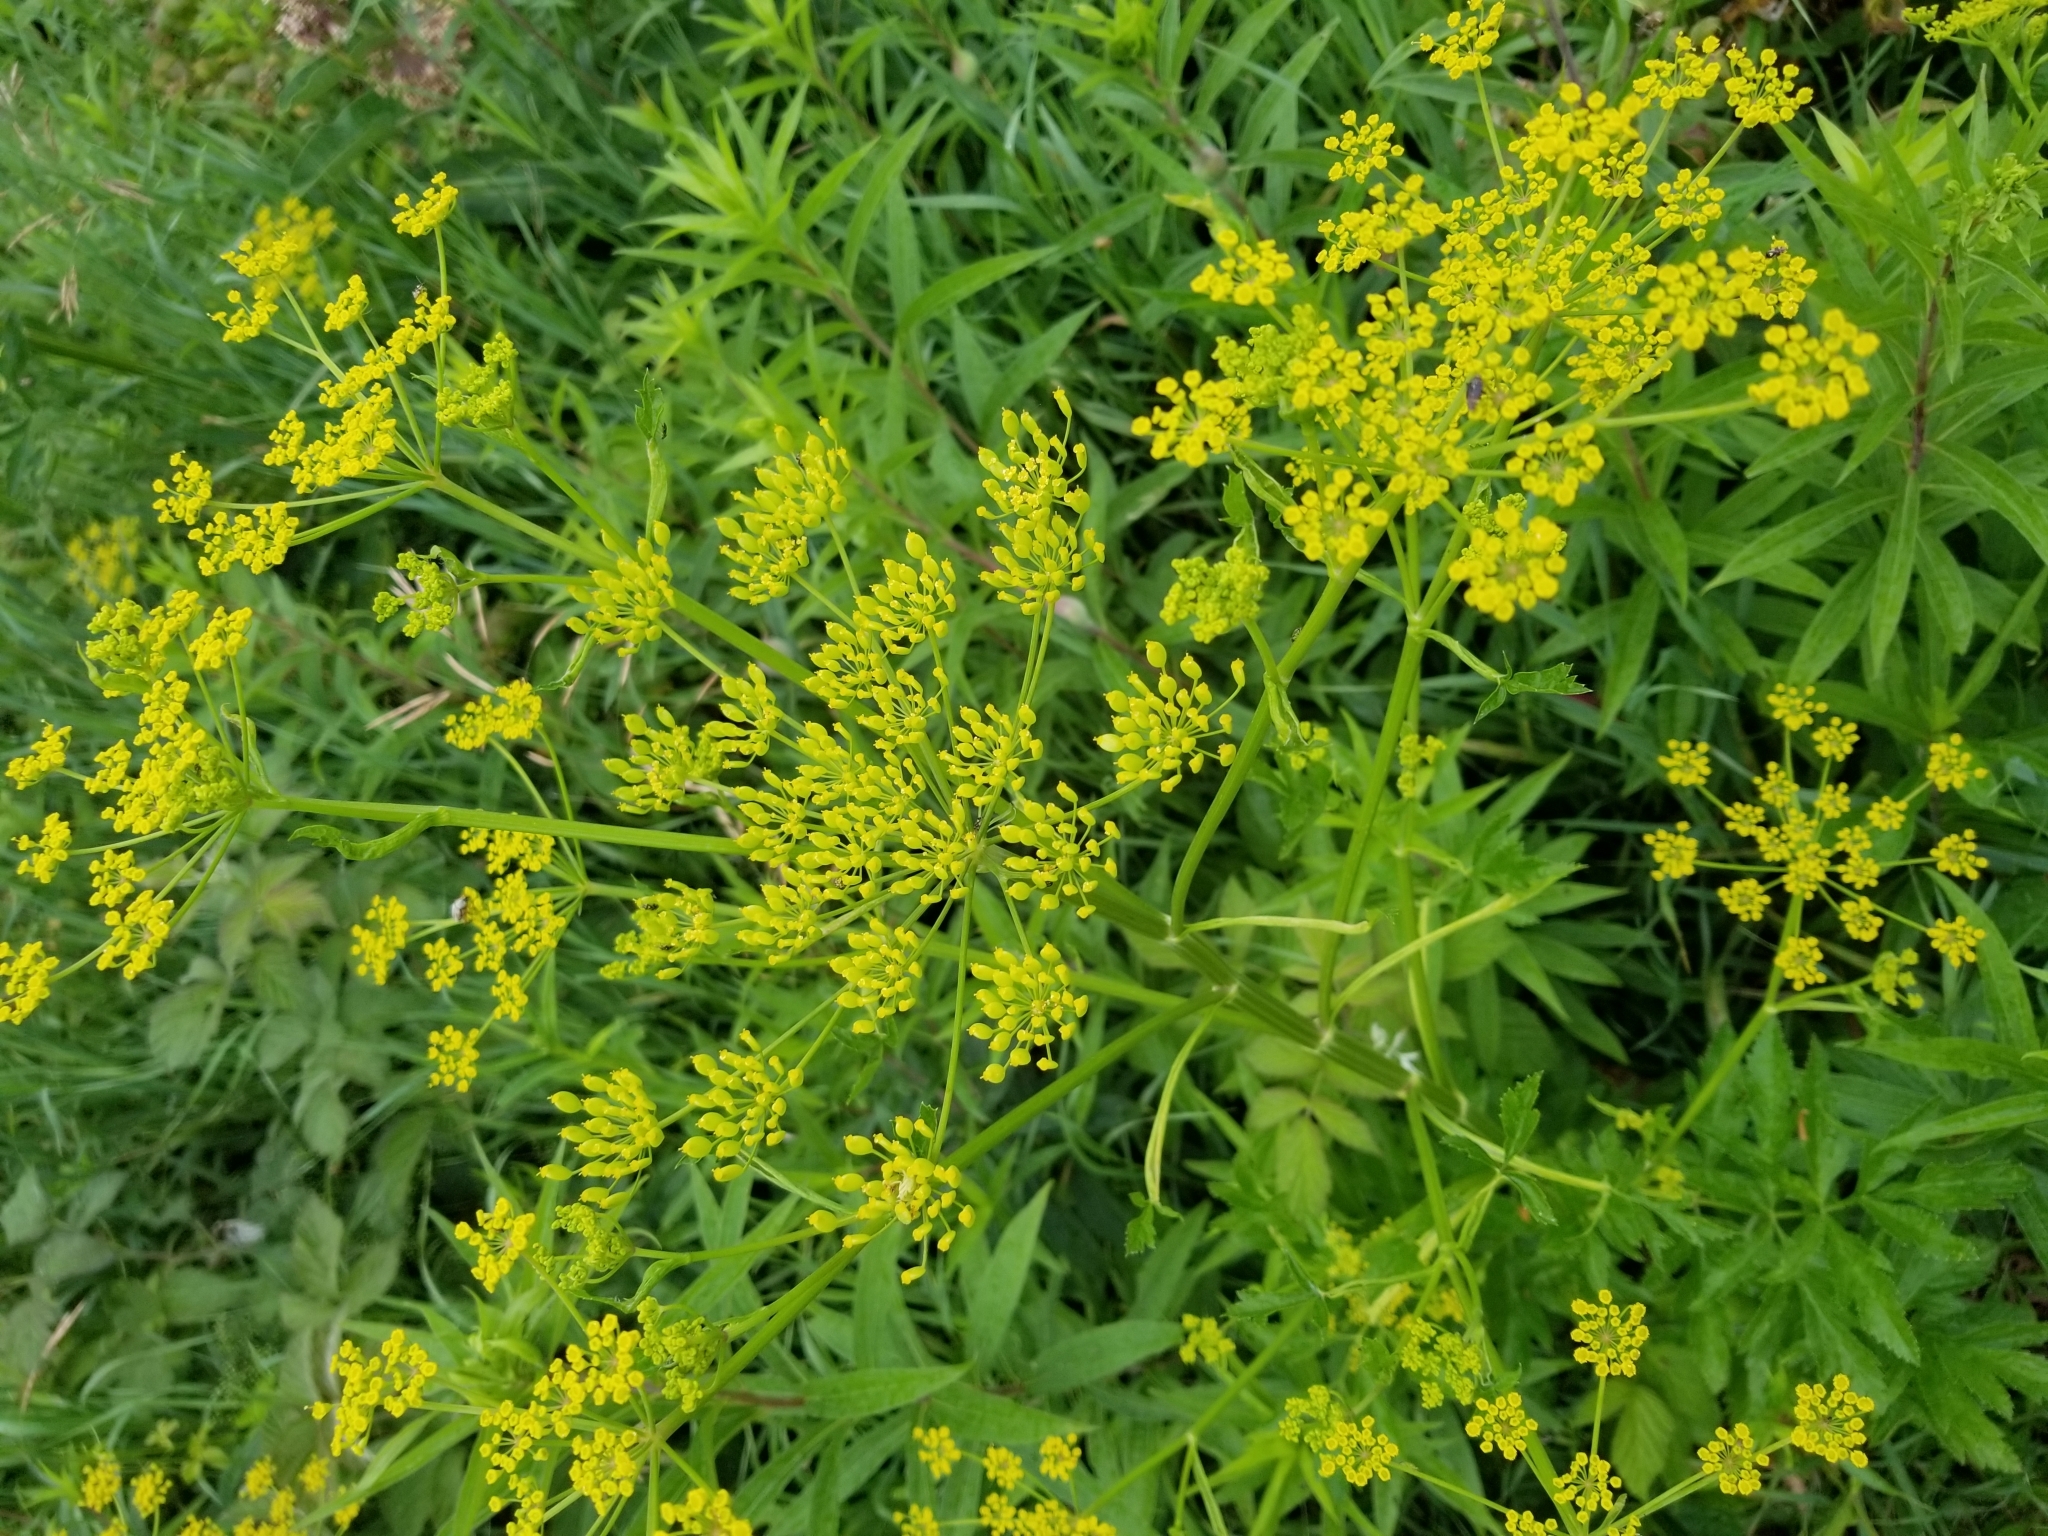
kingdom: Plantae
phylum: Tracheophyta
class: Magnoliopsida
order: Apiales
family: Apiaceae
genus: Pastinaca
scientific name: Pastinaca sativa
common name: Wild parsnip
